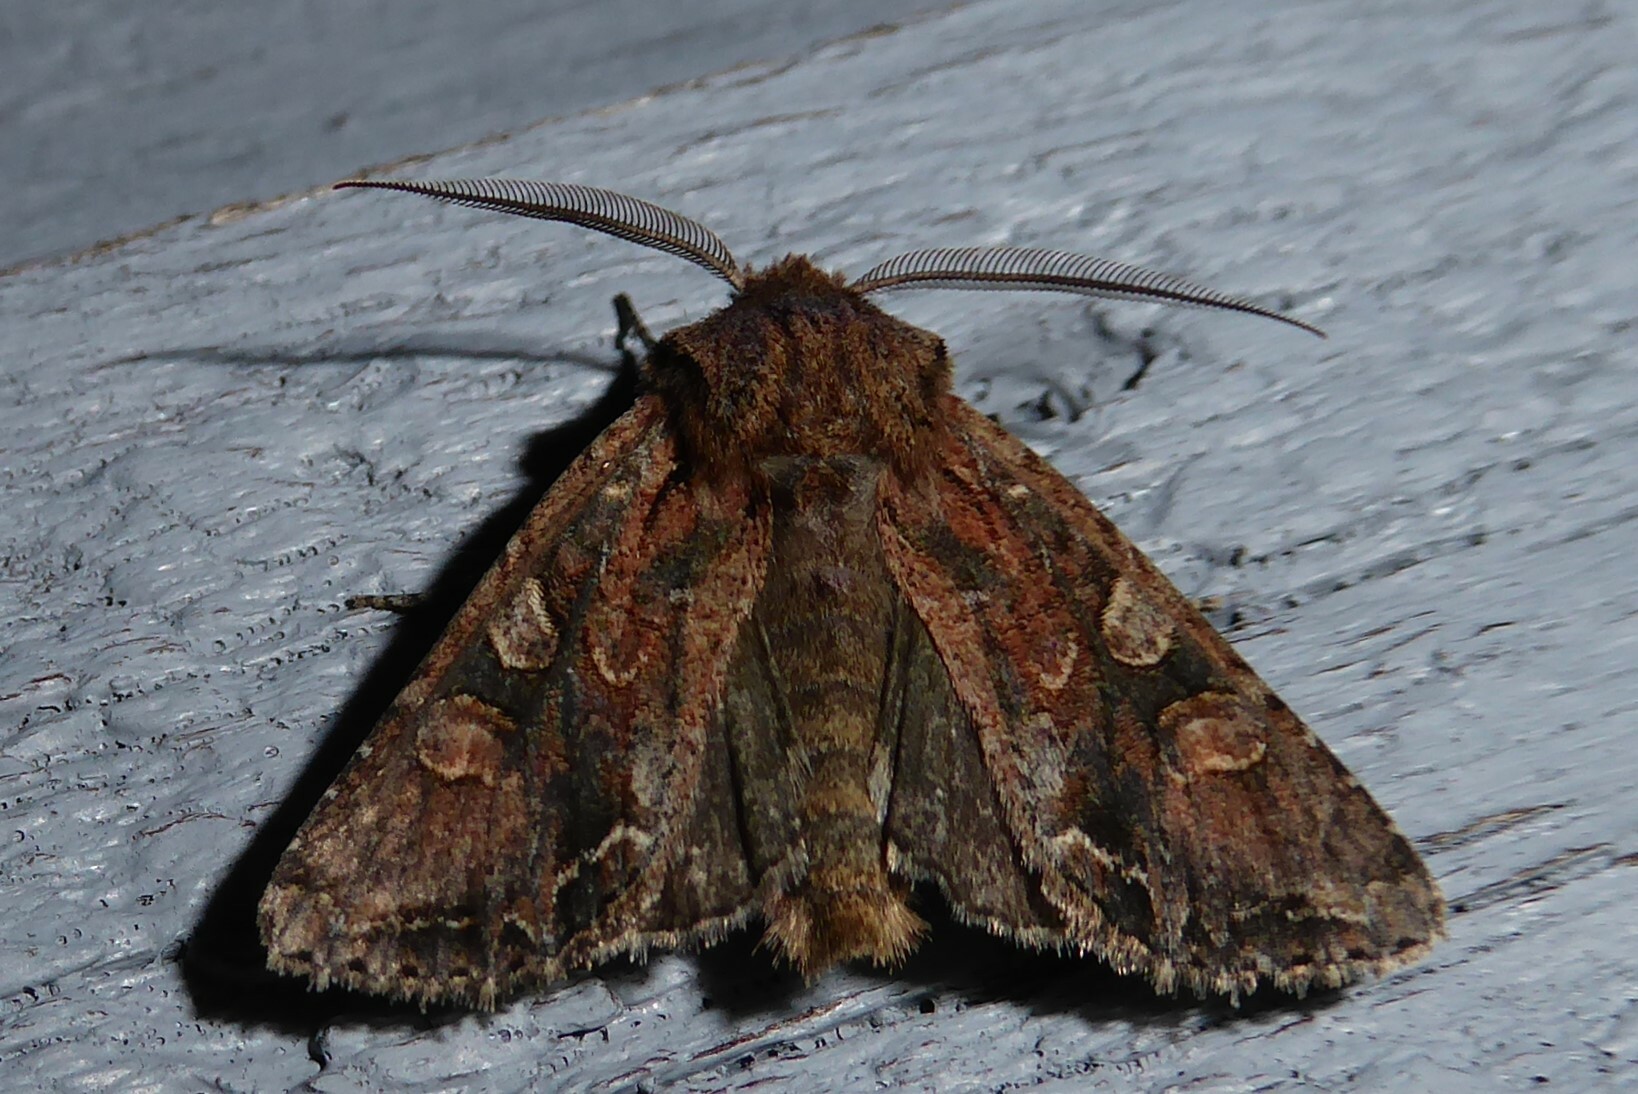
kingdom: Animalia
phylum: Arthropoda
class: Insecta
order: Lepidoptera
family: Noctuidae
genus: Ichneutica
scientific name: Ichneutica skelloni
